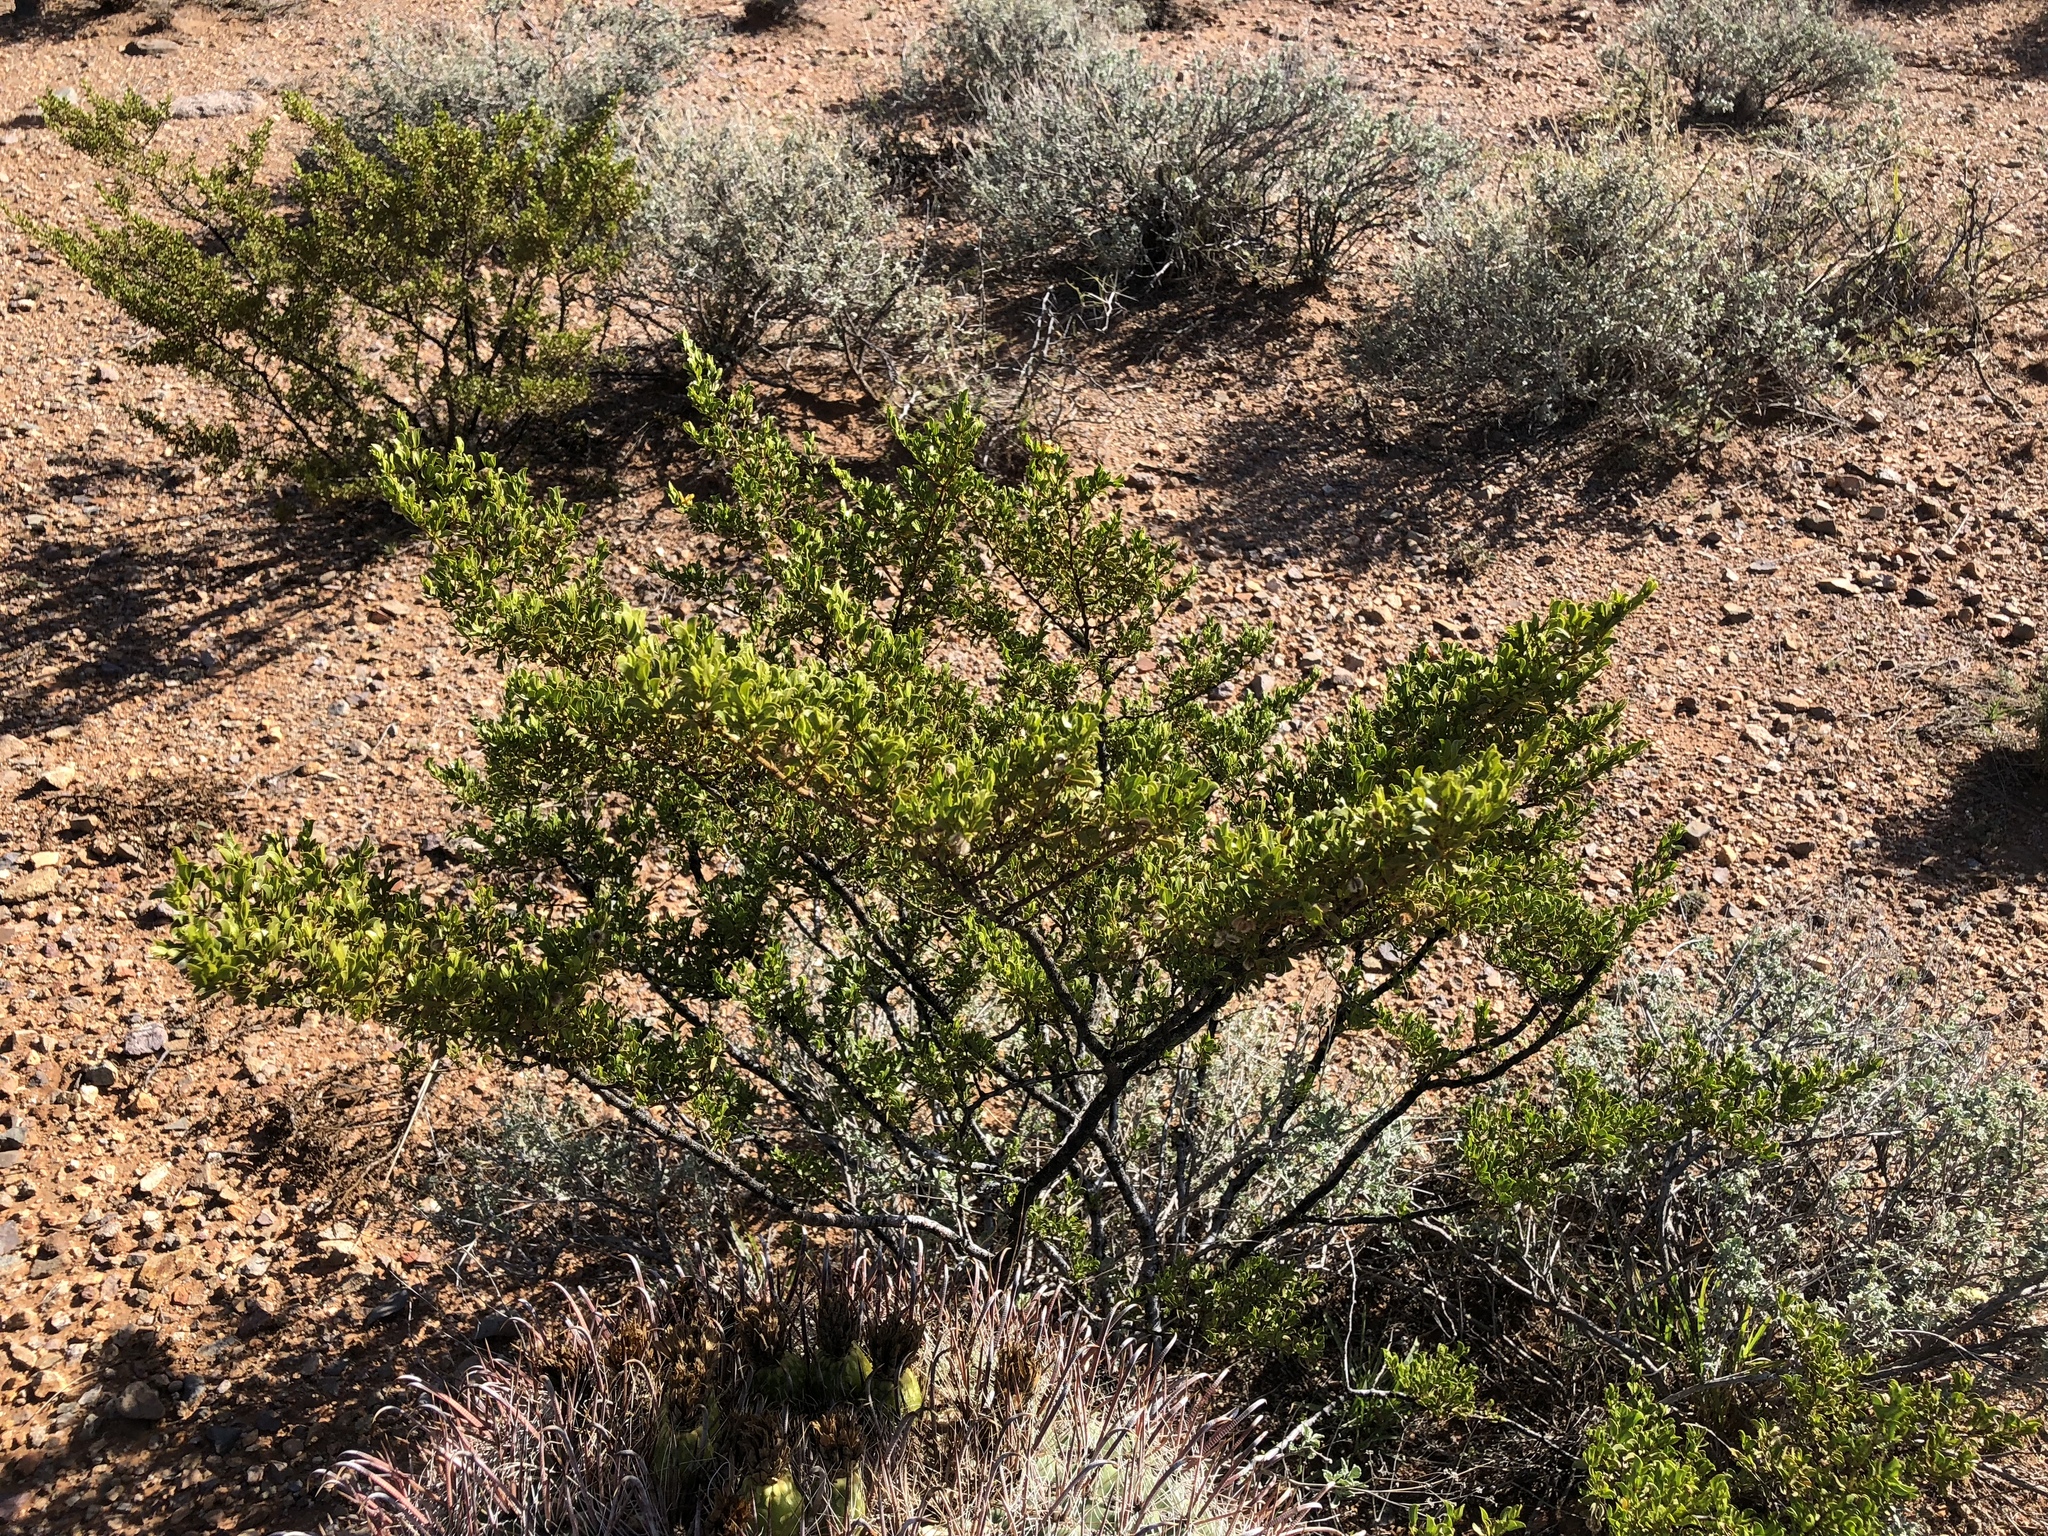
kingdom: Plantae
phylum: Tracheophyta
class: Magnoliopsida
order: Zygophyllales
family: Zygophyllaceae
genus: Larrea
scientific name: Larrea tridentata
